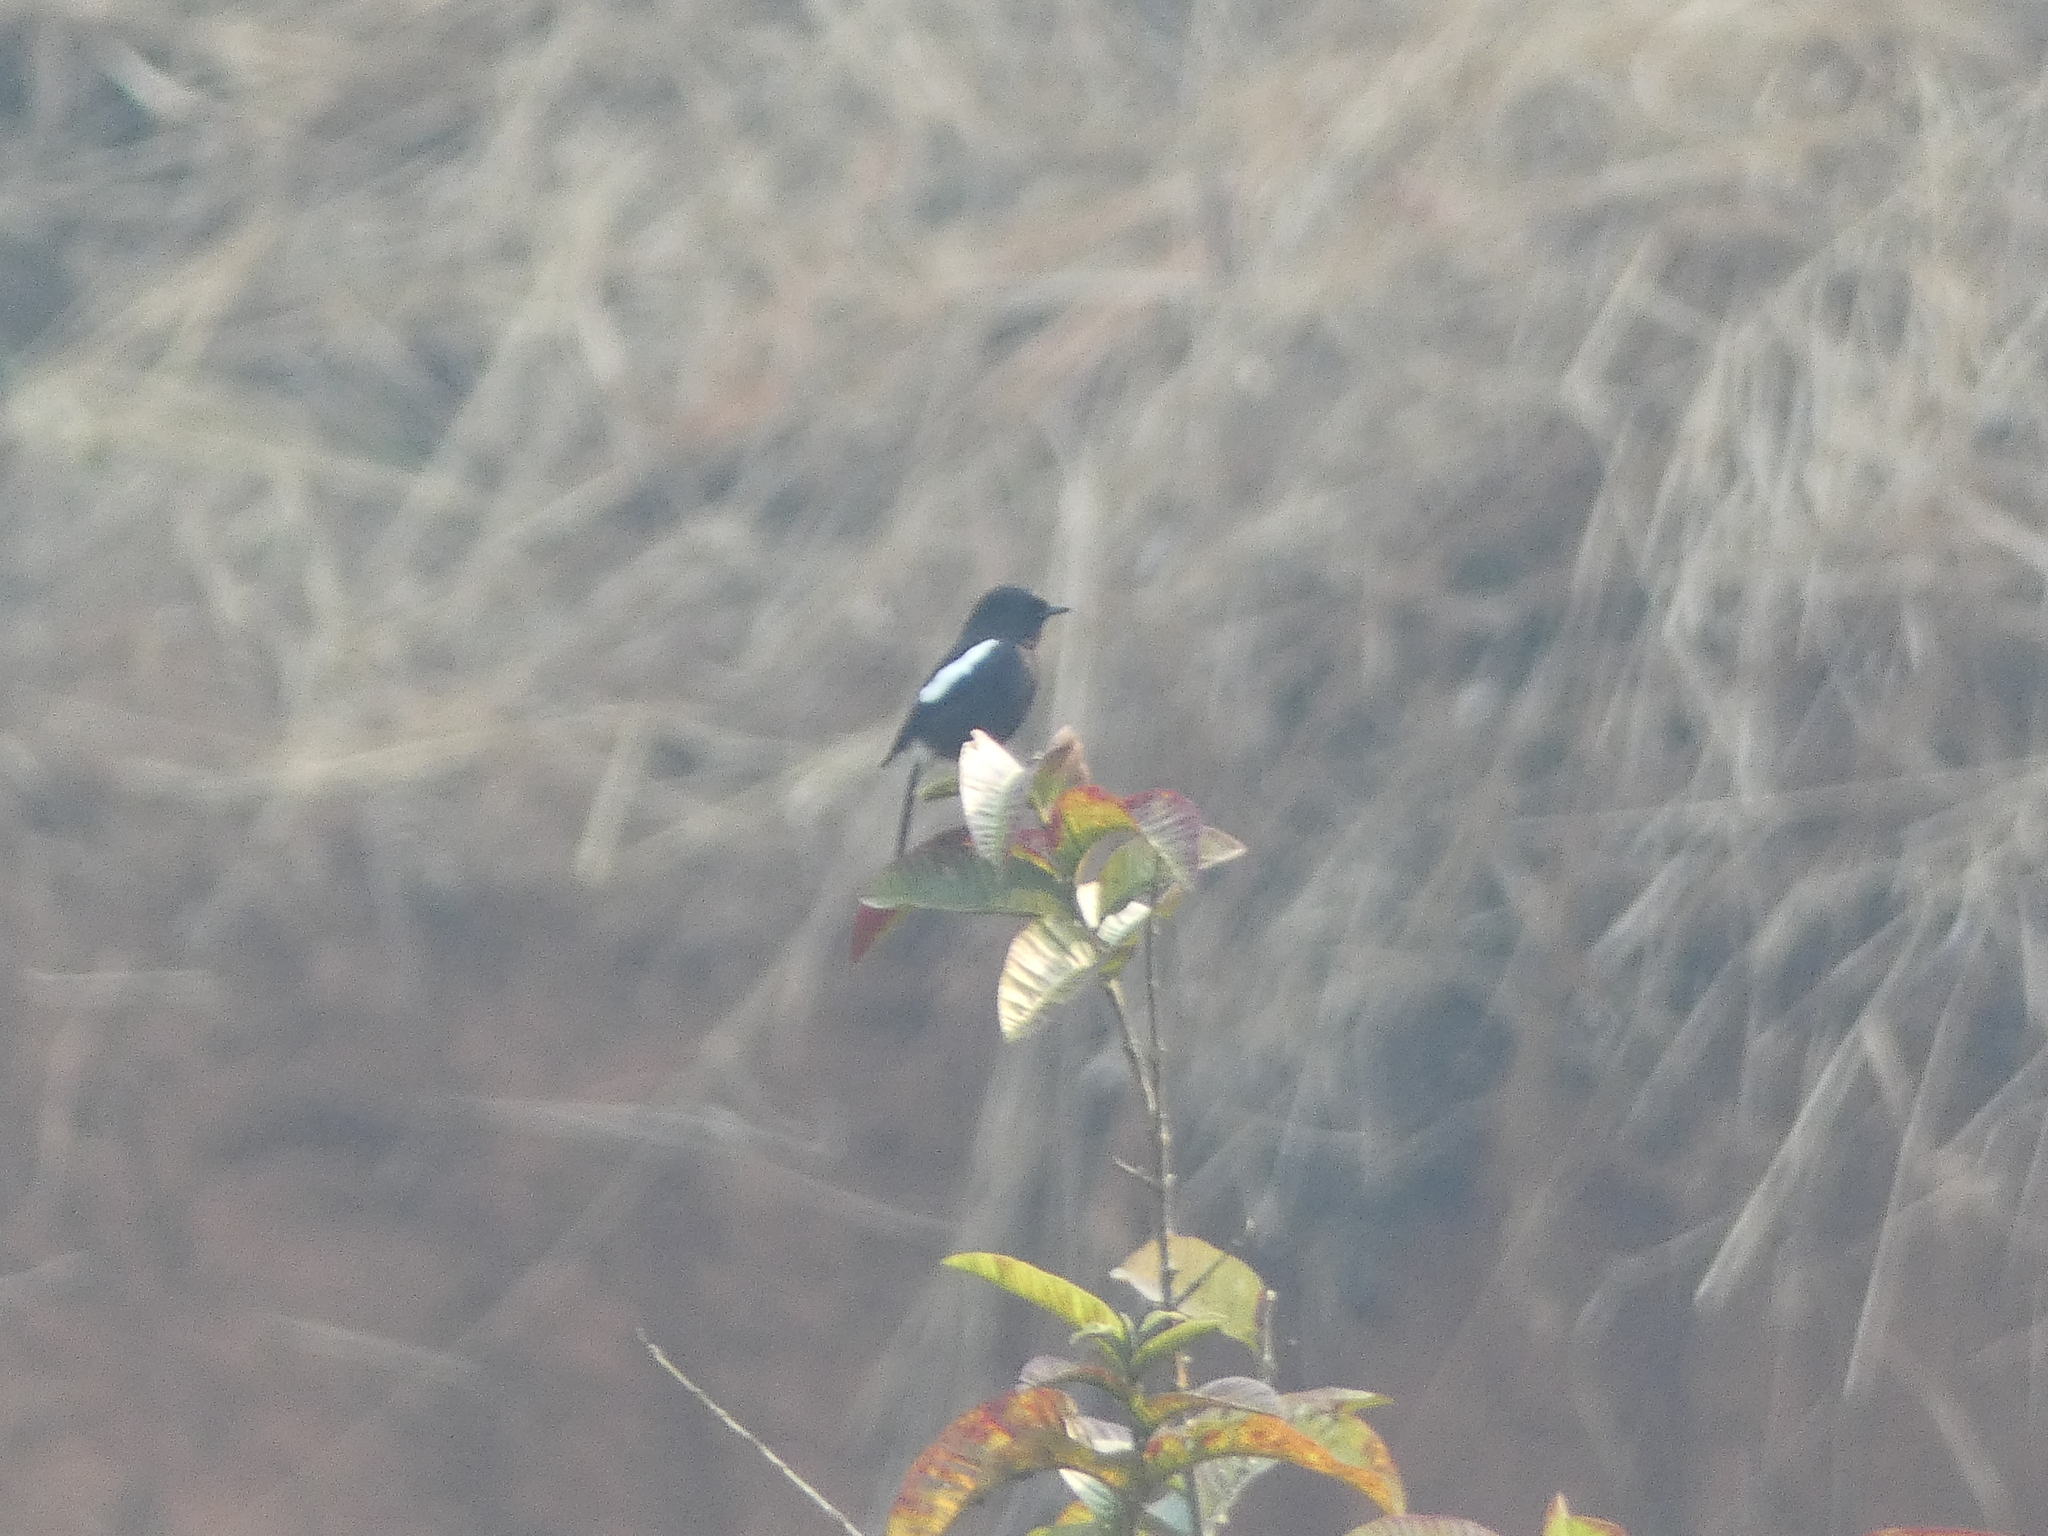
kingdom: Animalia
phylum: Chordata
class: Aves
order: Passeriformes
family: Muscicapidae
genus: Saxicola
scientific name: Saxicola caprata
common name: Pied bush chat
